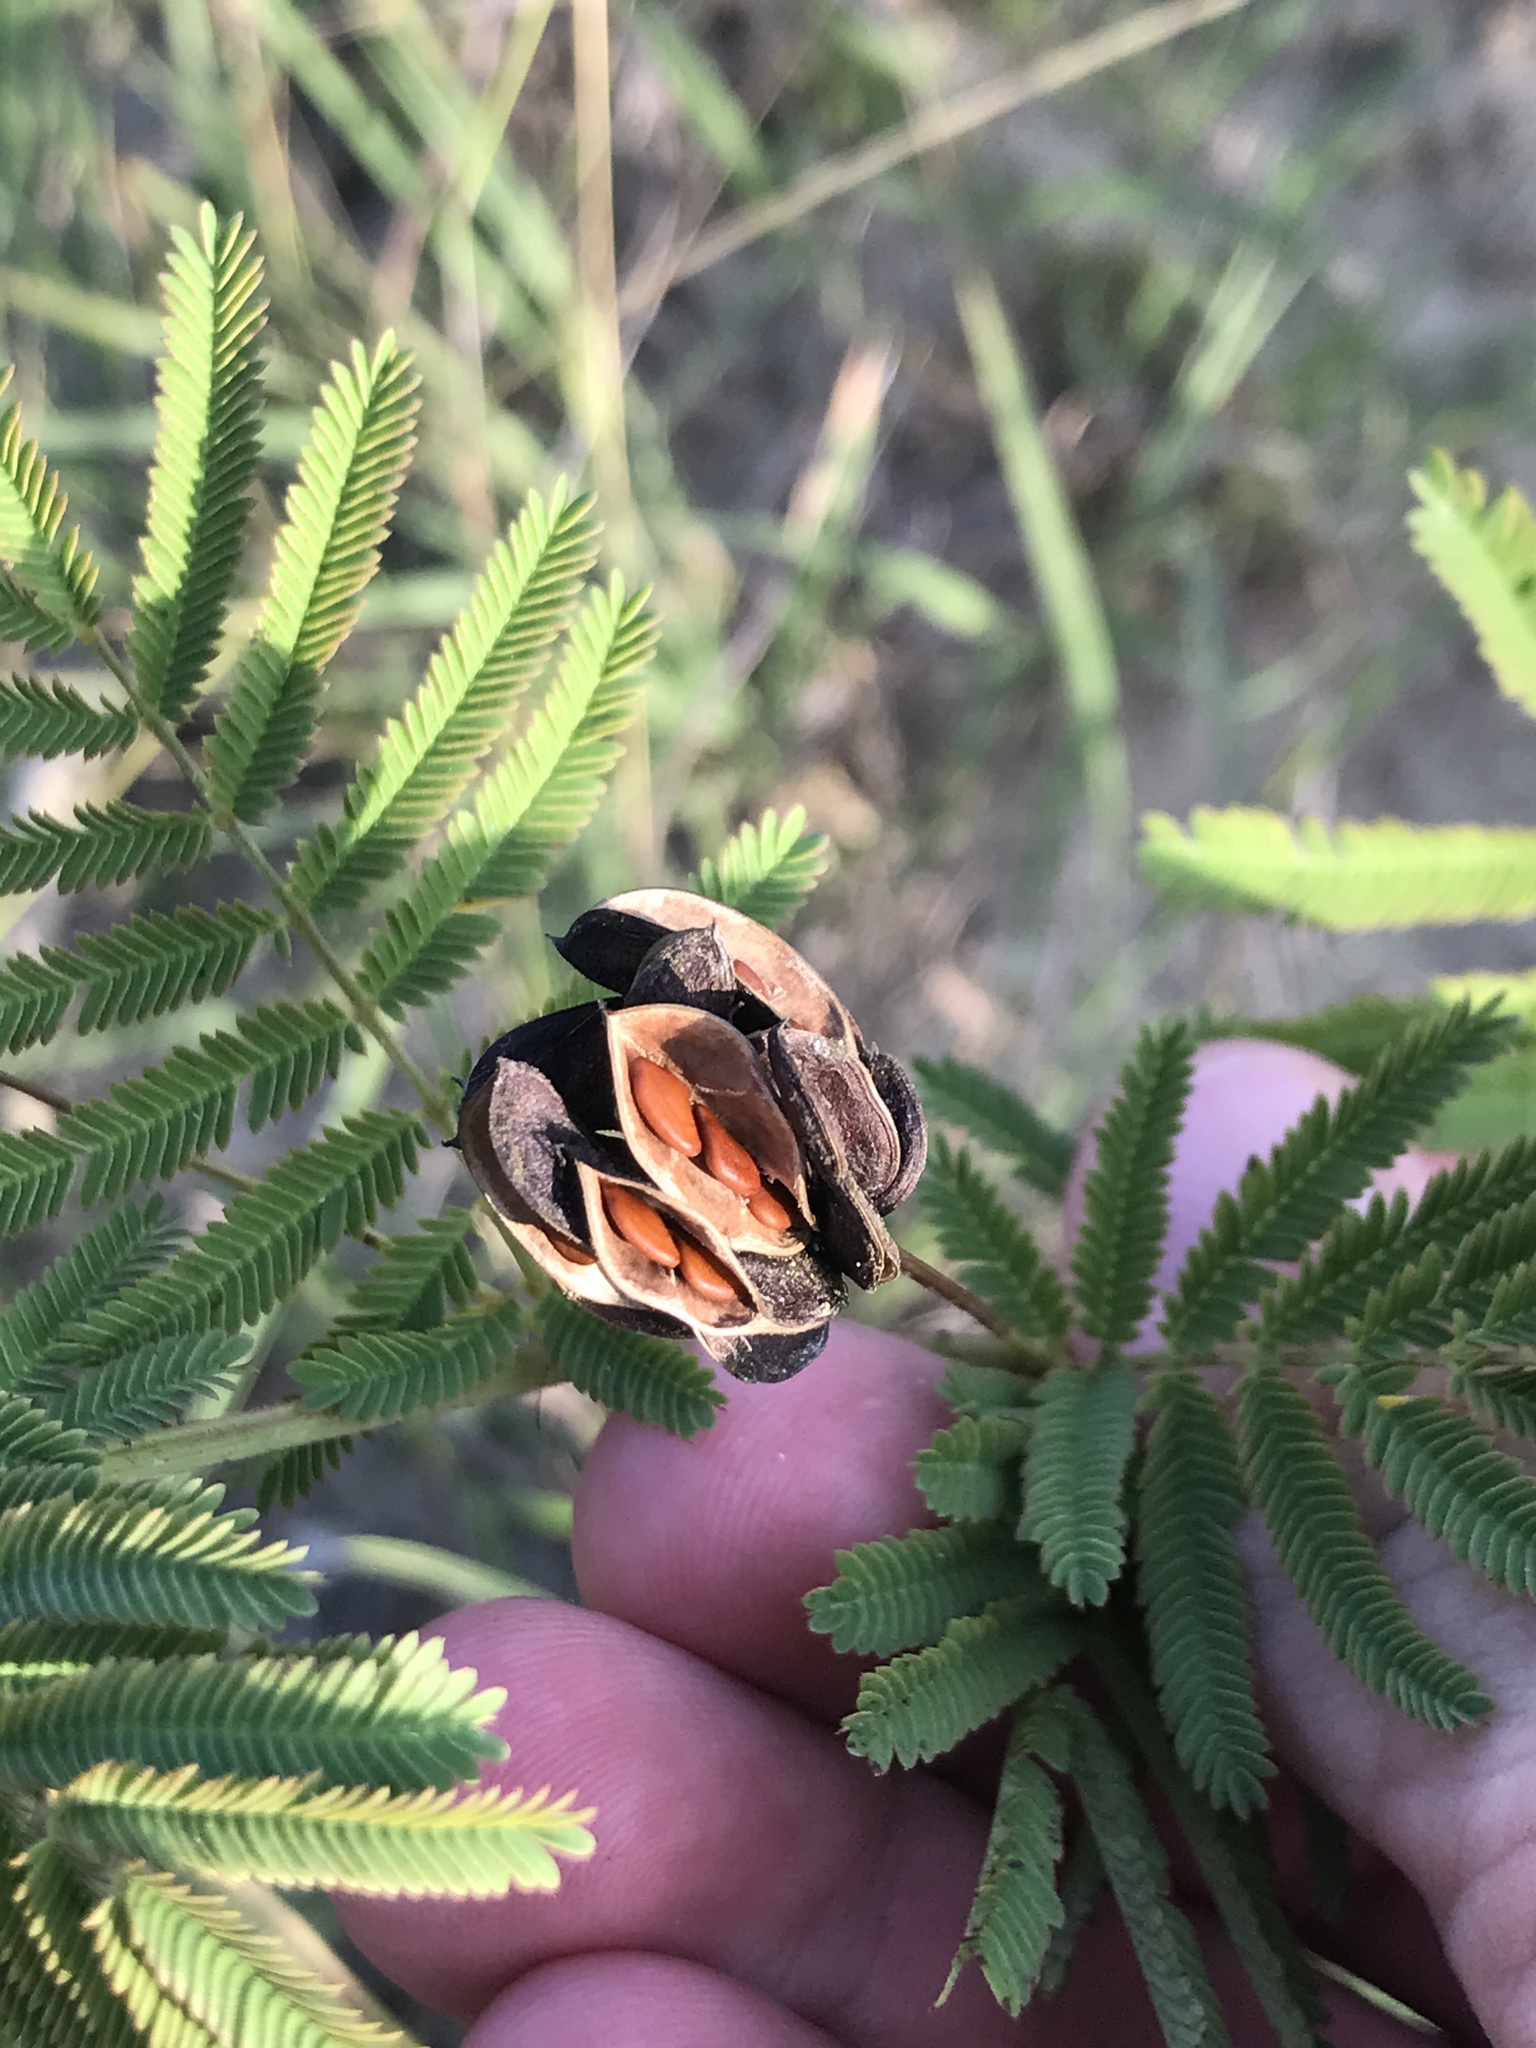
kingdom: Plantae
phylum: Tracheophyta
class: Magnoliopsida
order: Fabales
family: Fabaceae
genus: Desmanthus
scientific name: Desmanthus illinoensis
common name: Illinois bundle-flower
